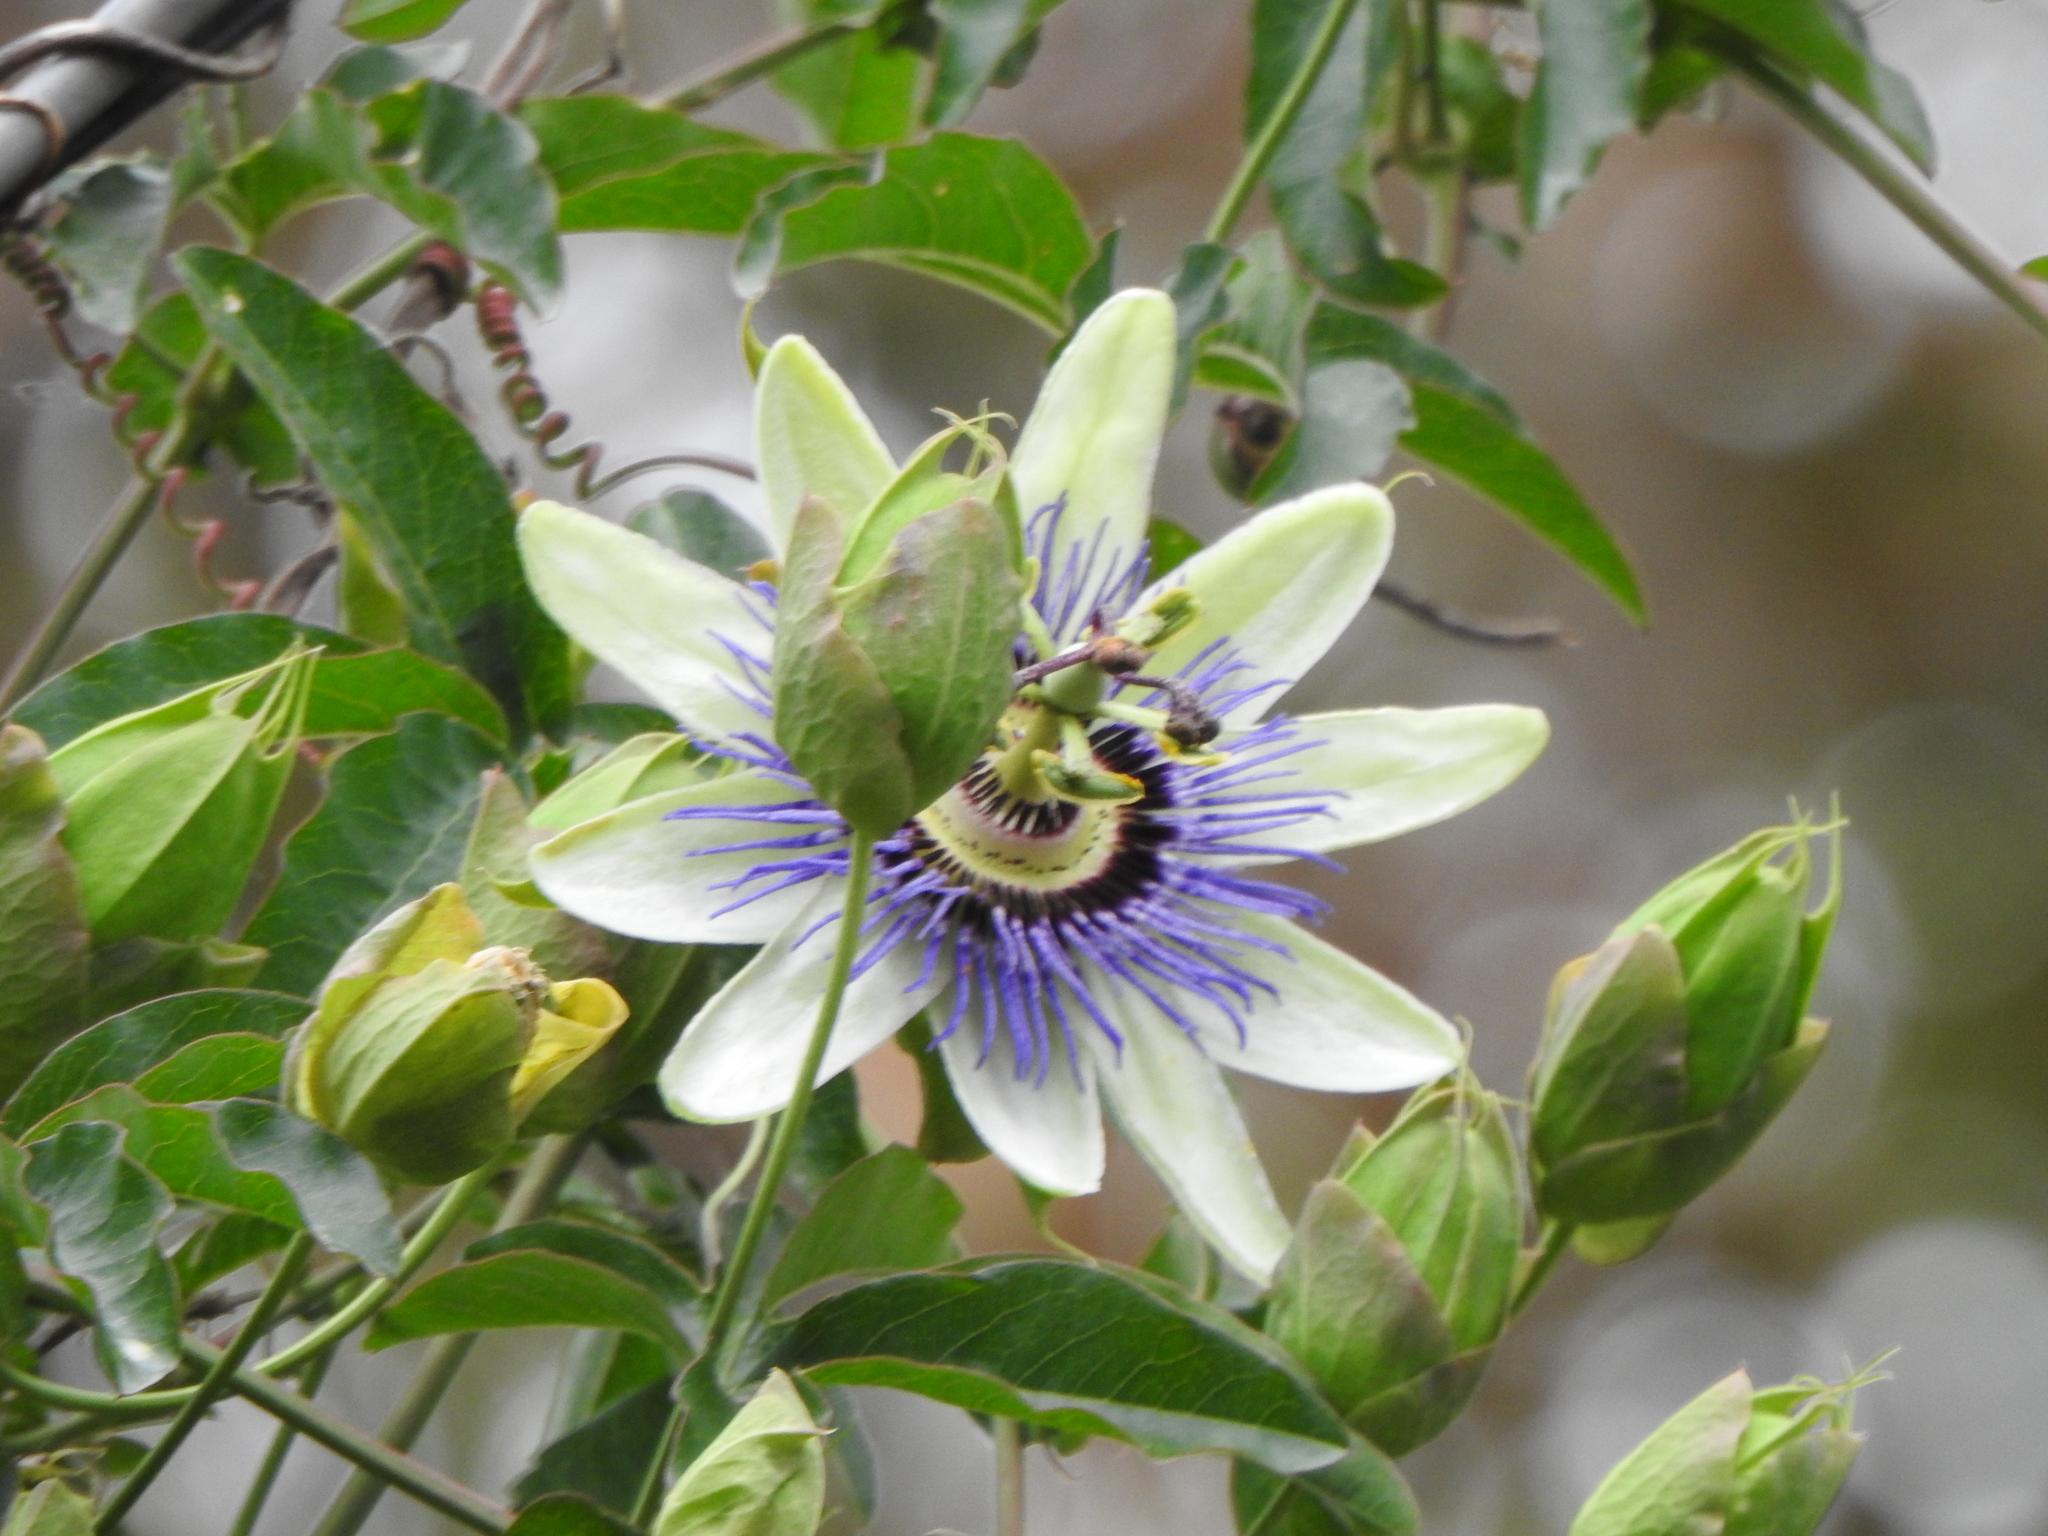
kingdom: Plantae
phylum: Tracheophyta
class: Magnoliopsida
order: Malpighiales
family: Passifloraceae
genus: Passiflora
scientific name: Passiflora caerulea
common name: Blue passionflower
